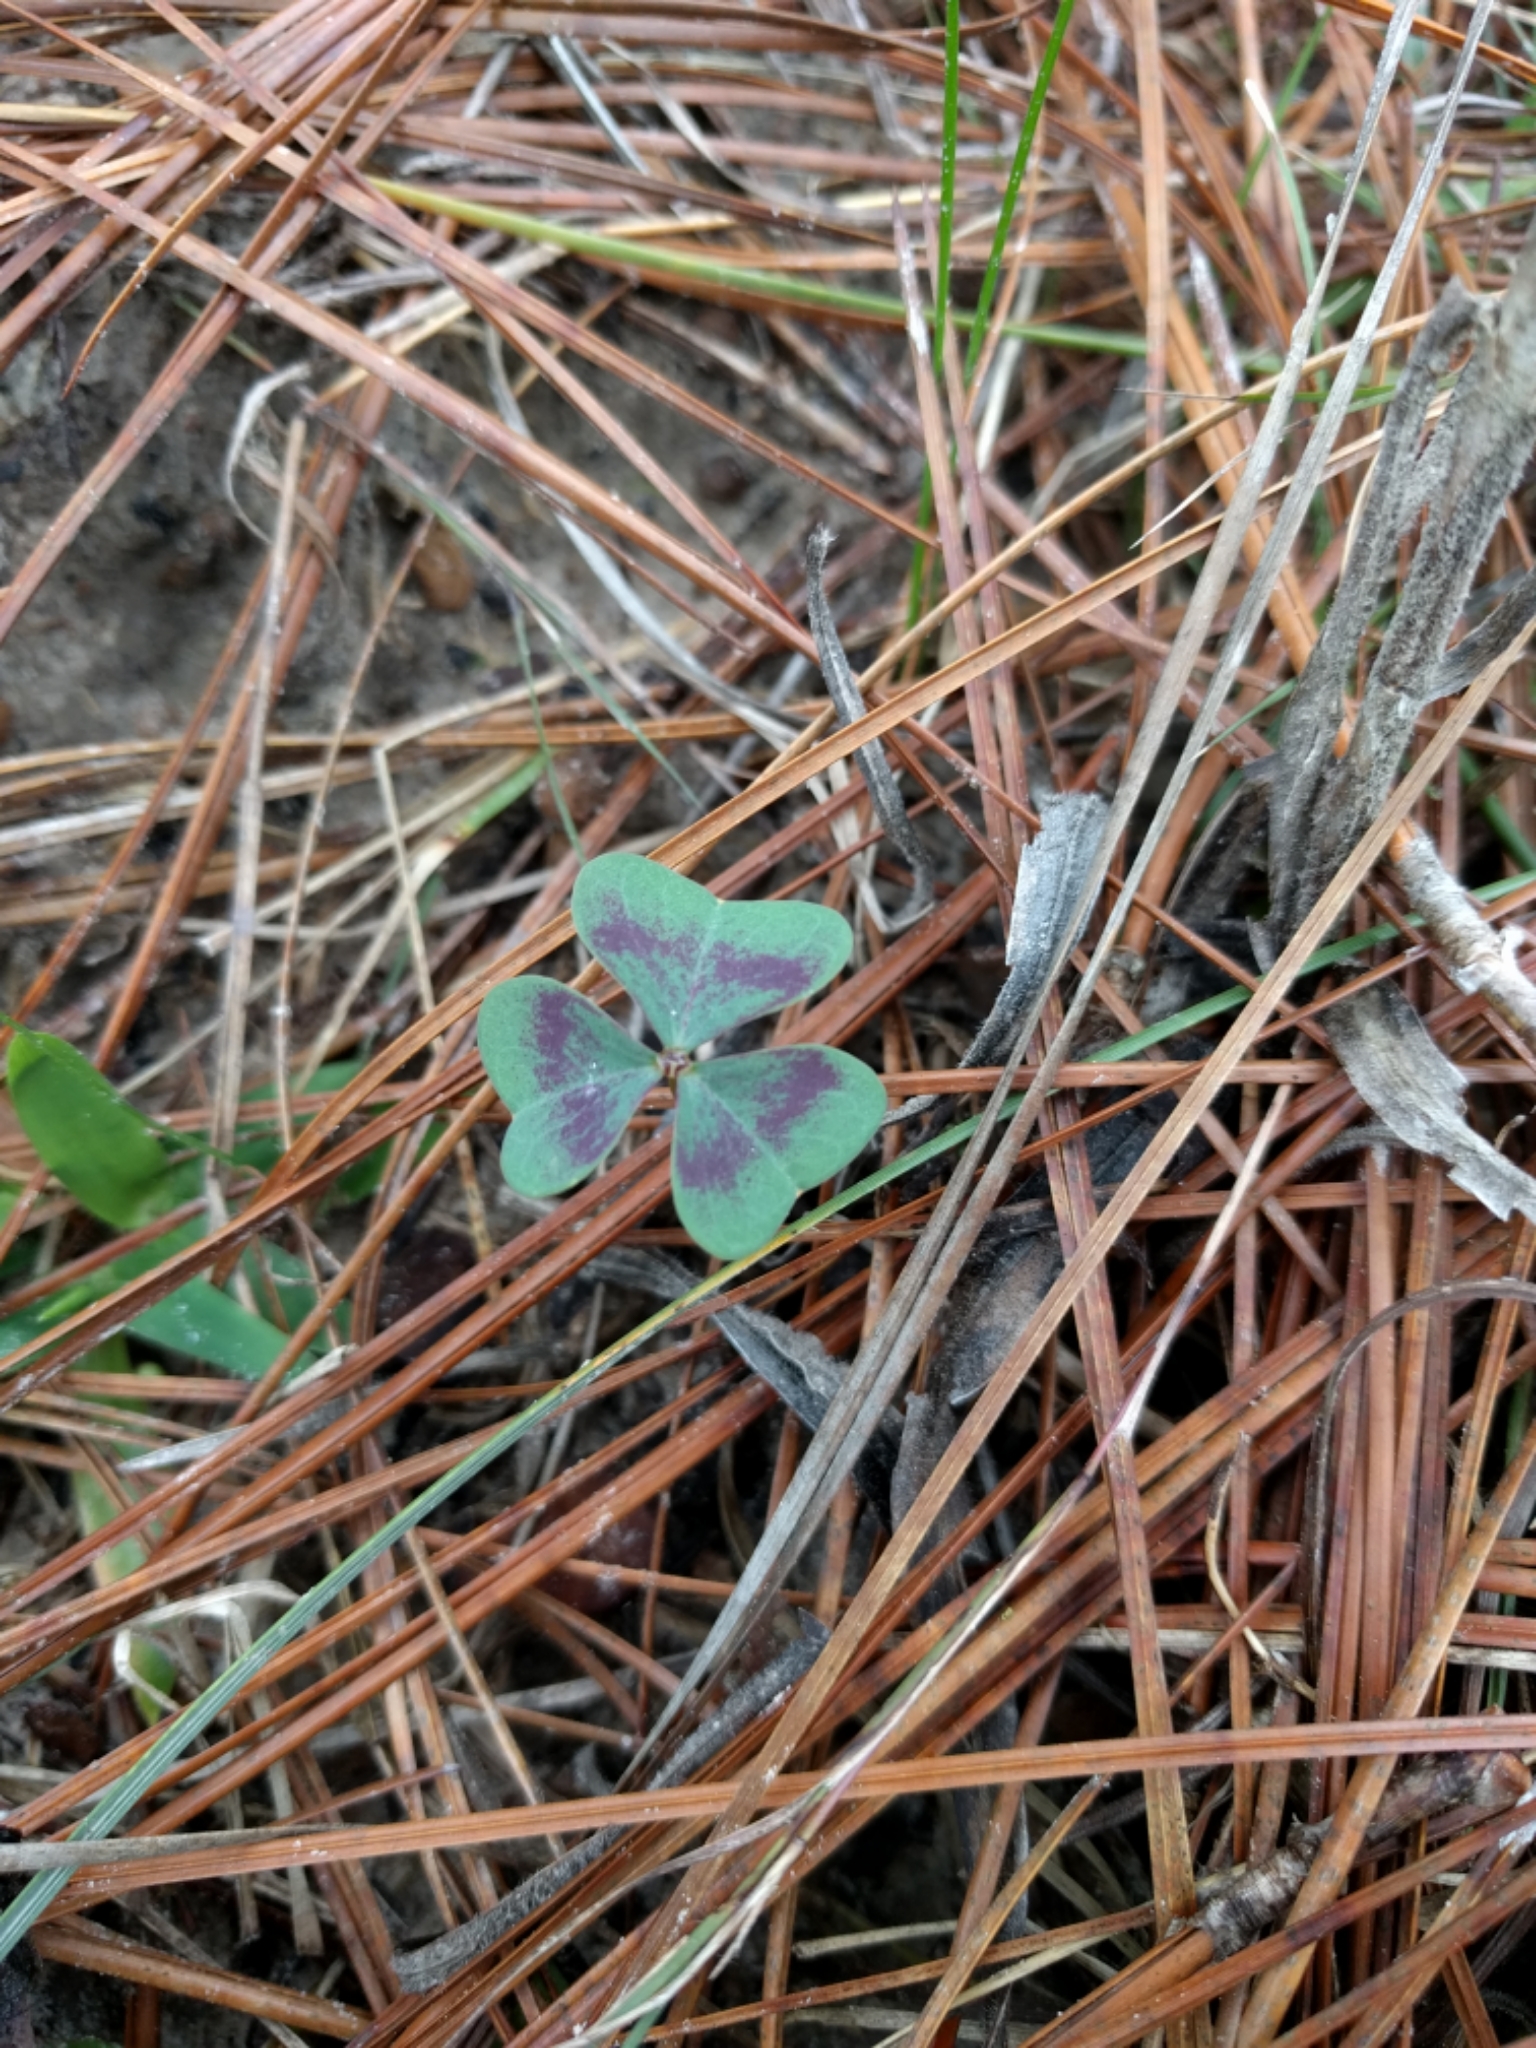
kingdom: Plantae
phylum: Tracheophyta
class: Magnoliopsida
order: Oxalidales
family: Oxalidaceae
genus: Oxalis
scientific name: Oxalis violacea
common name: Violet wood-sorrel
